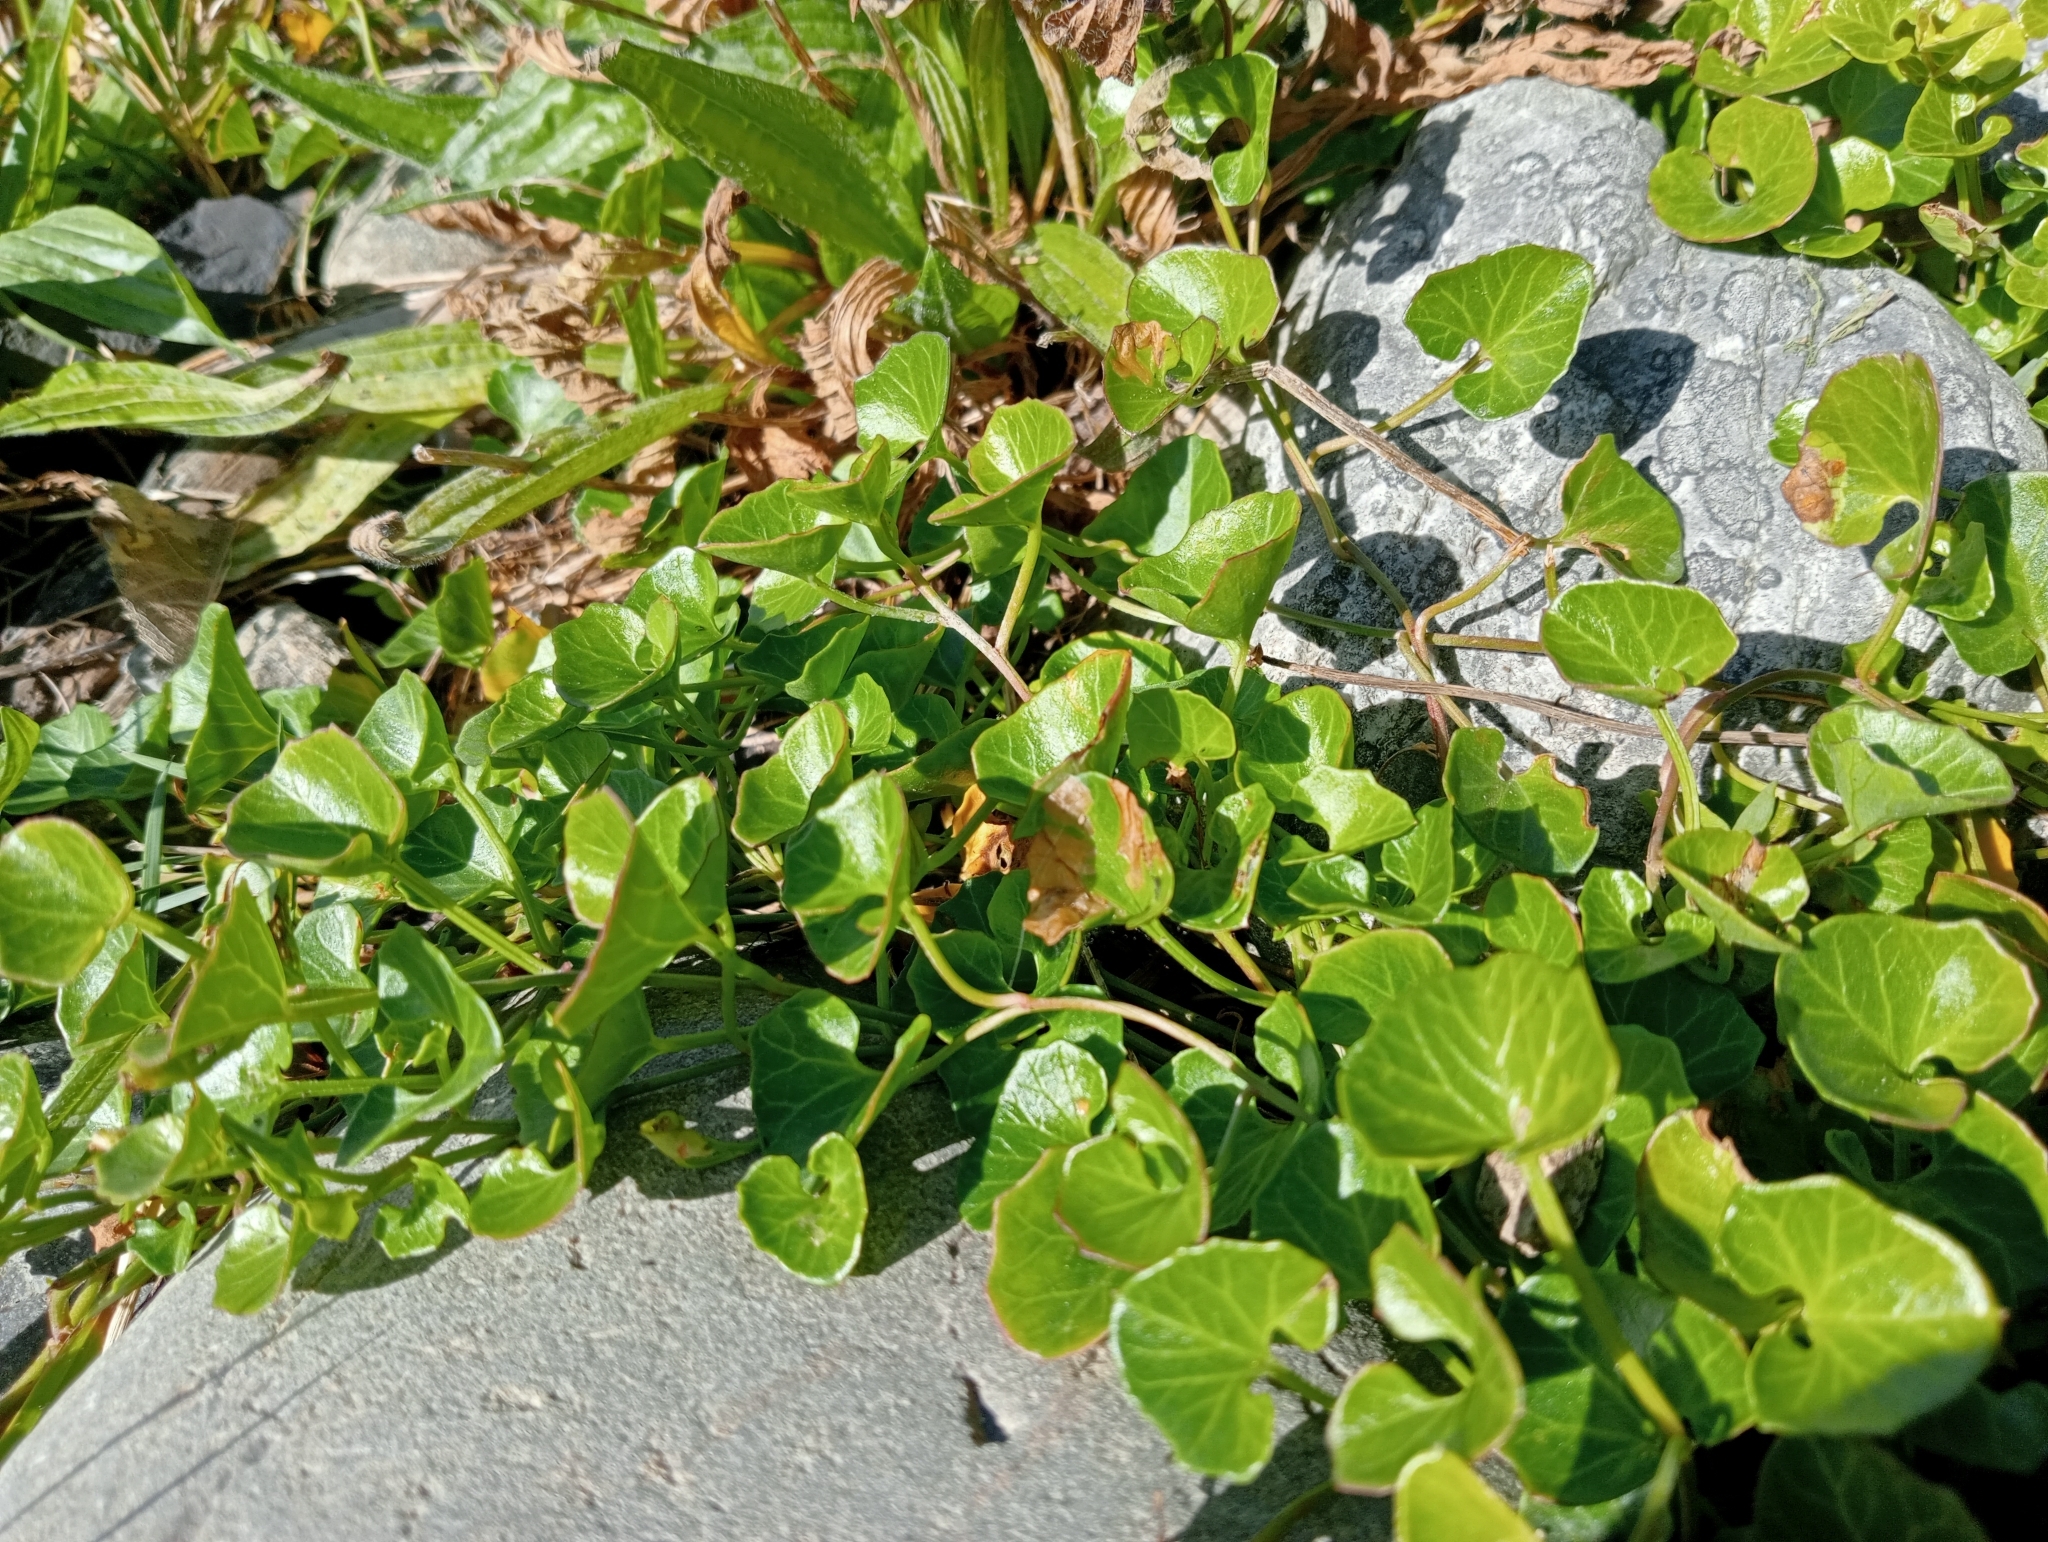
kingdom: Plantae
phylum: Tracheophyta
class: Magnoliopsida
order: Solanales
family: Convolvulaceae
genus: Calystegia
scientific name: Calystegia soldanella
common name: Sea bindweed
